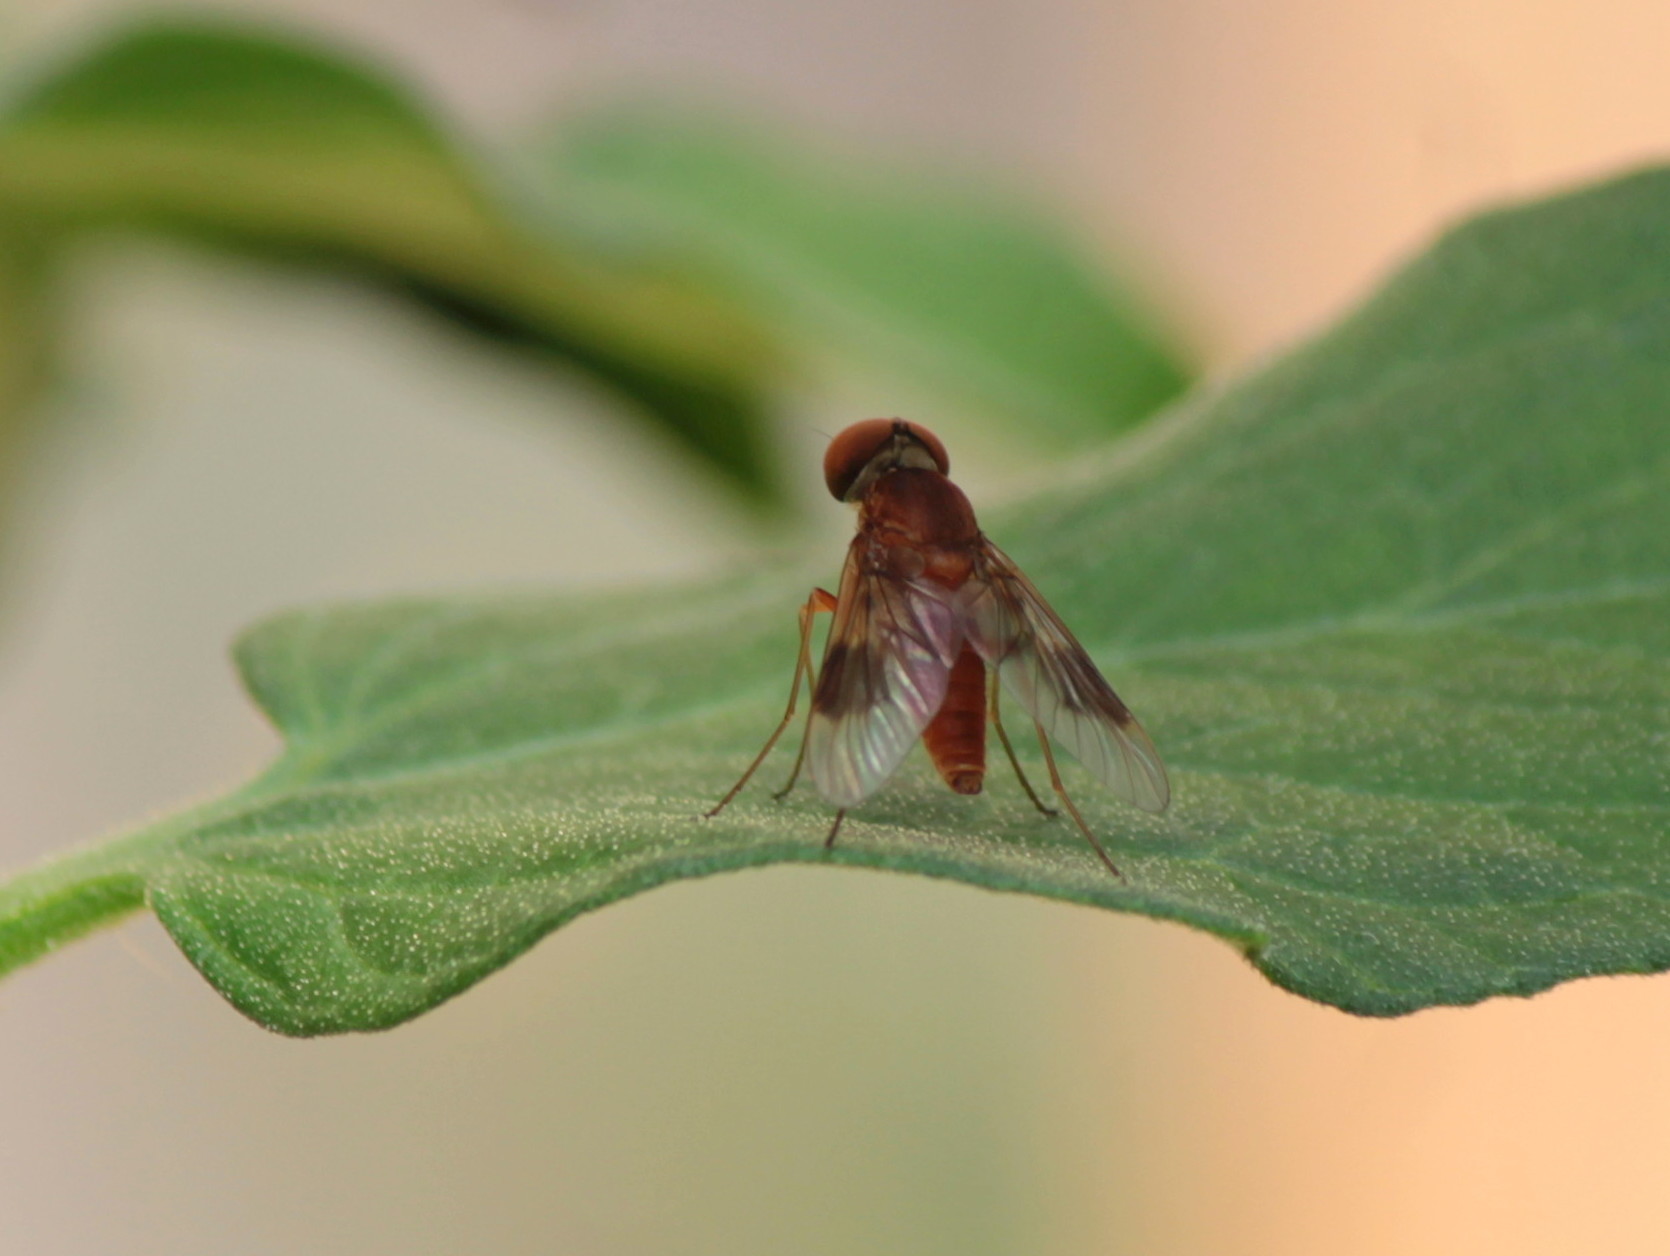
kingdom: Animalia
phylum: Arthropoda
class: Insecta
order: Diptera
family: Rhagionidae
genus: Chrysopilus
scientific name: Chrysopilus quadratus
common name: Quadrate snipe fly
